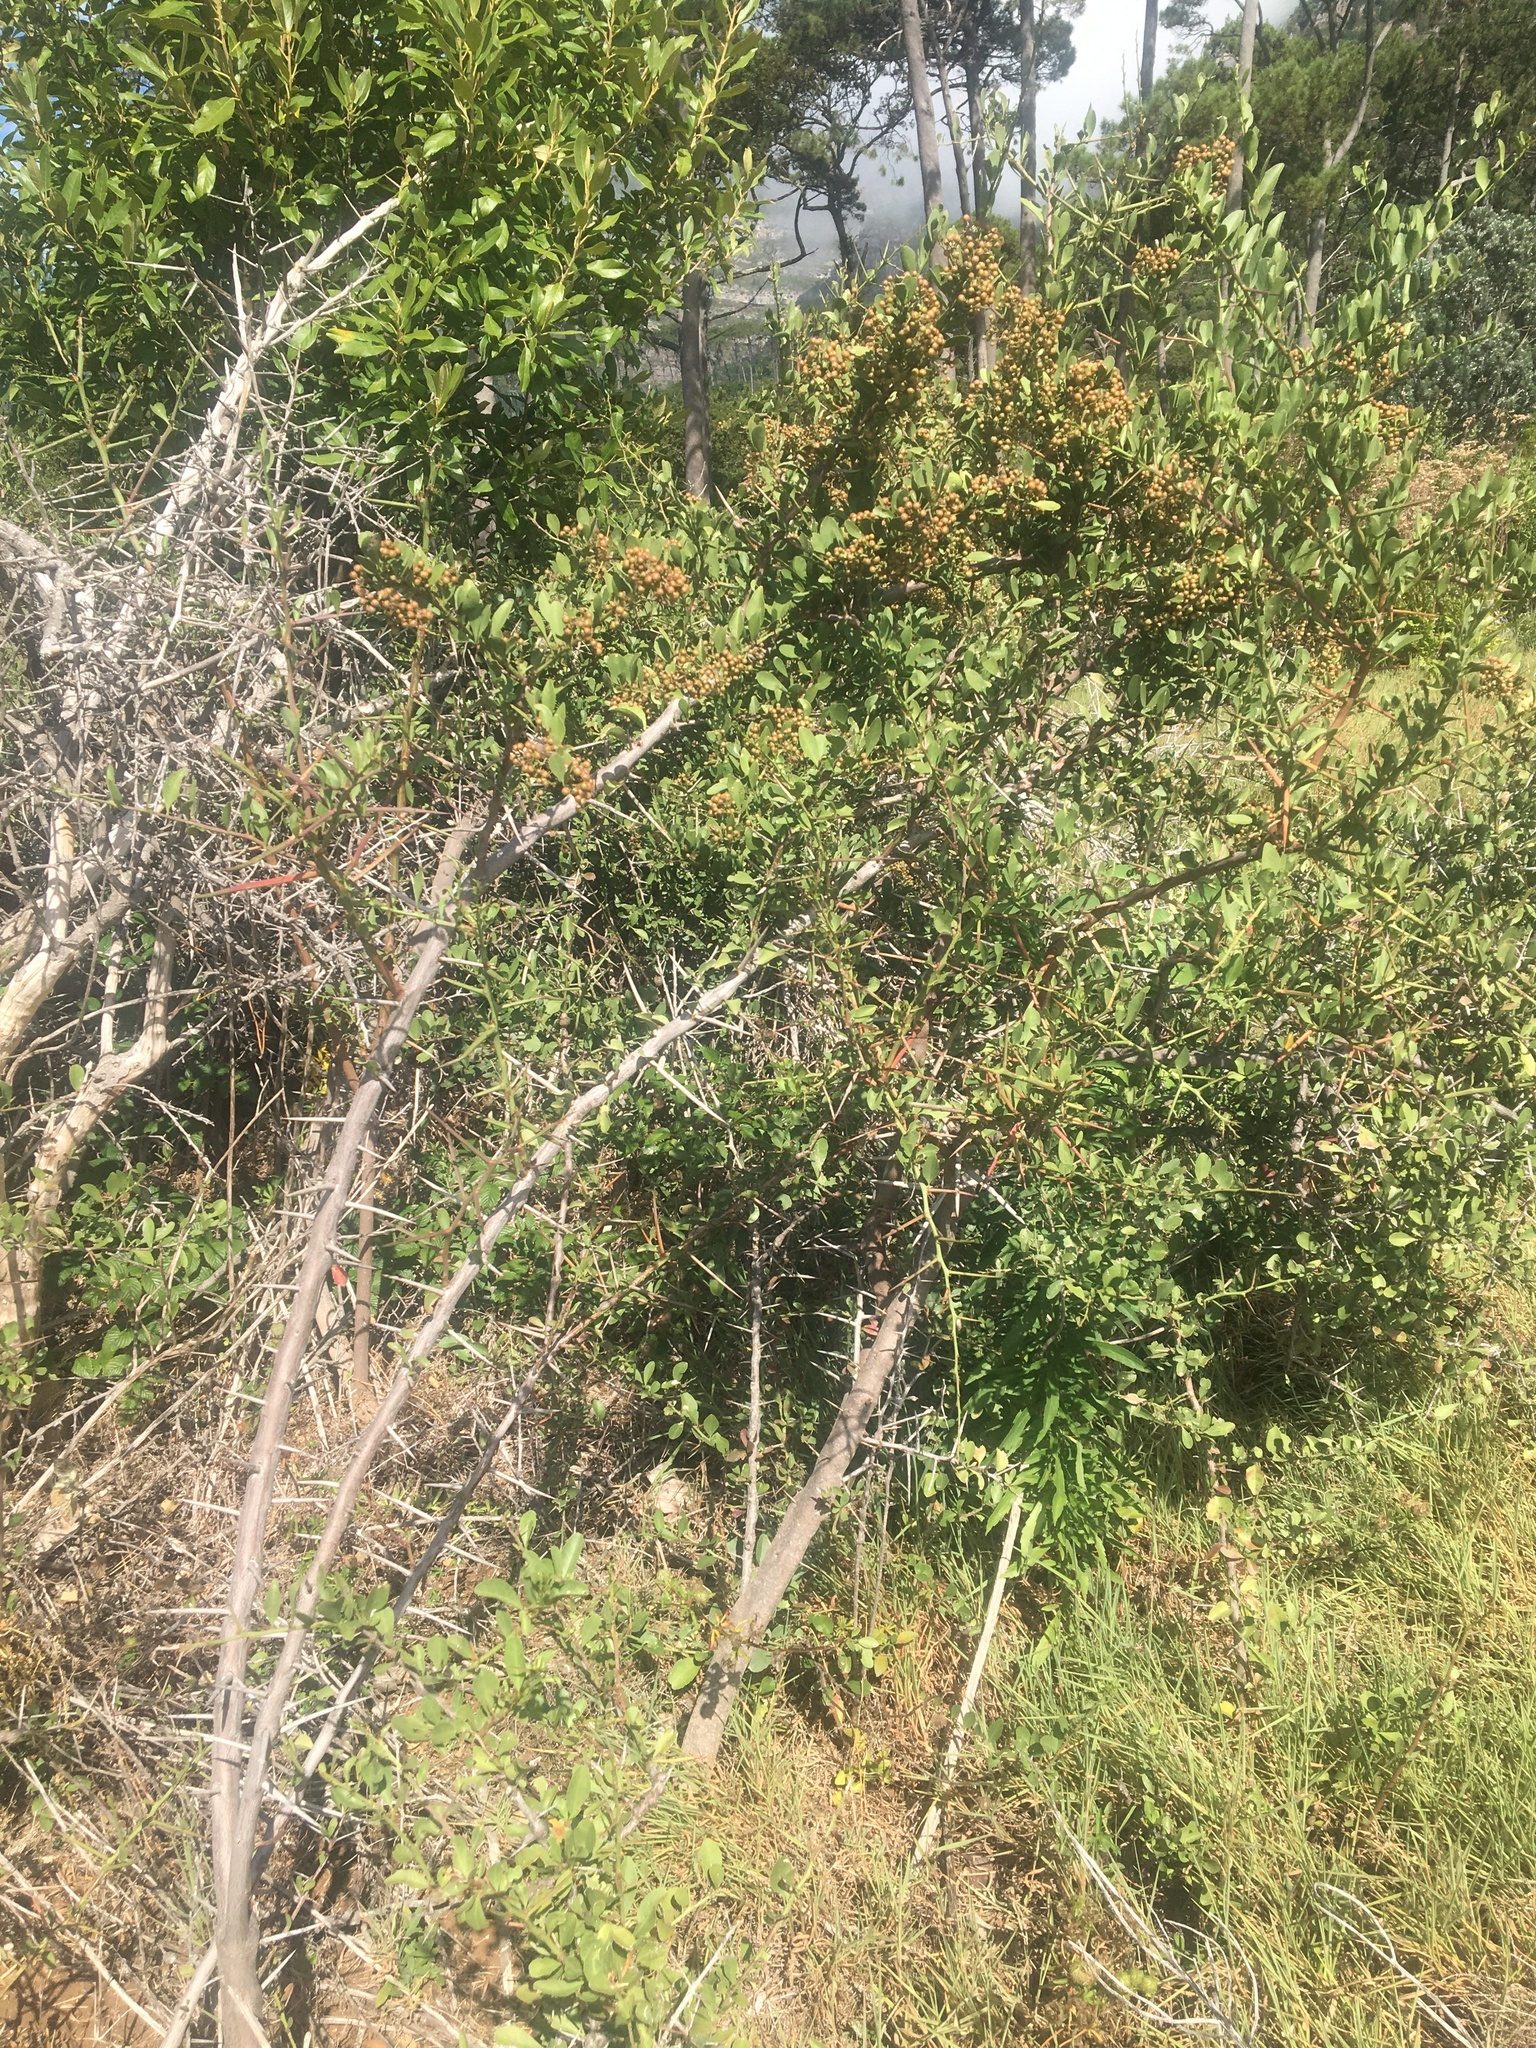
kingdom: Plantae
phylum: Tracheophyta
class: Magnoliopsida
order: Celastrales
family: Celastraceae
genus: Gymnosporia
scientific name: Gymnosporia buxifolia
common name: Common spike-thorn
